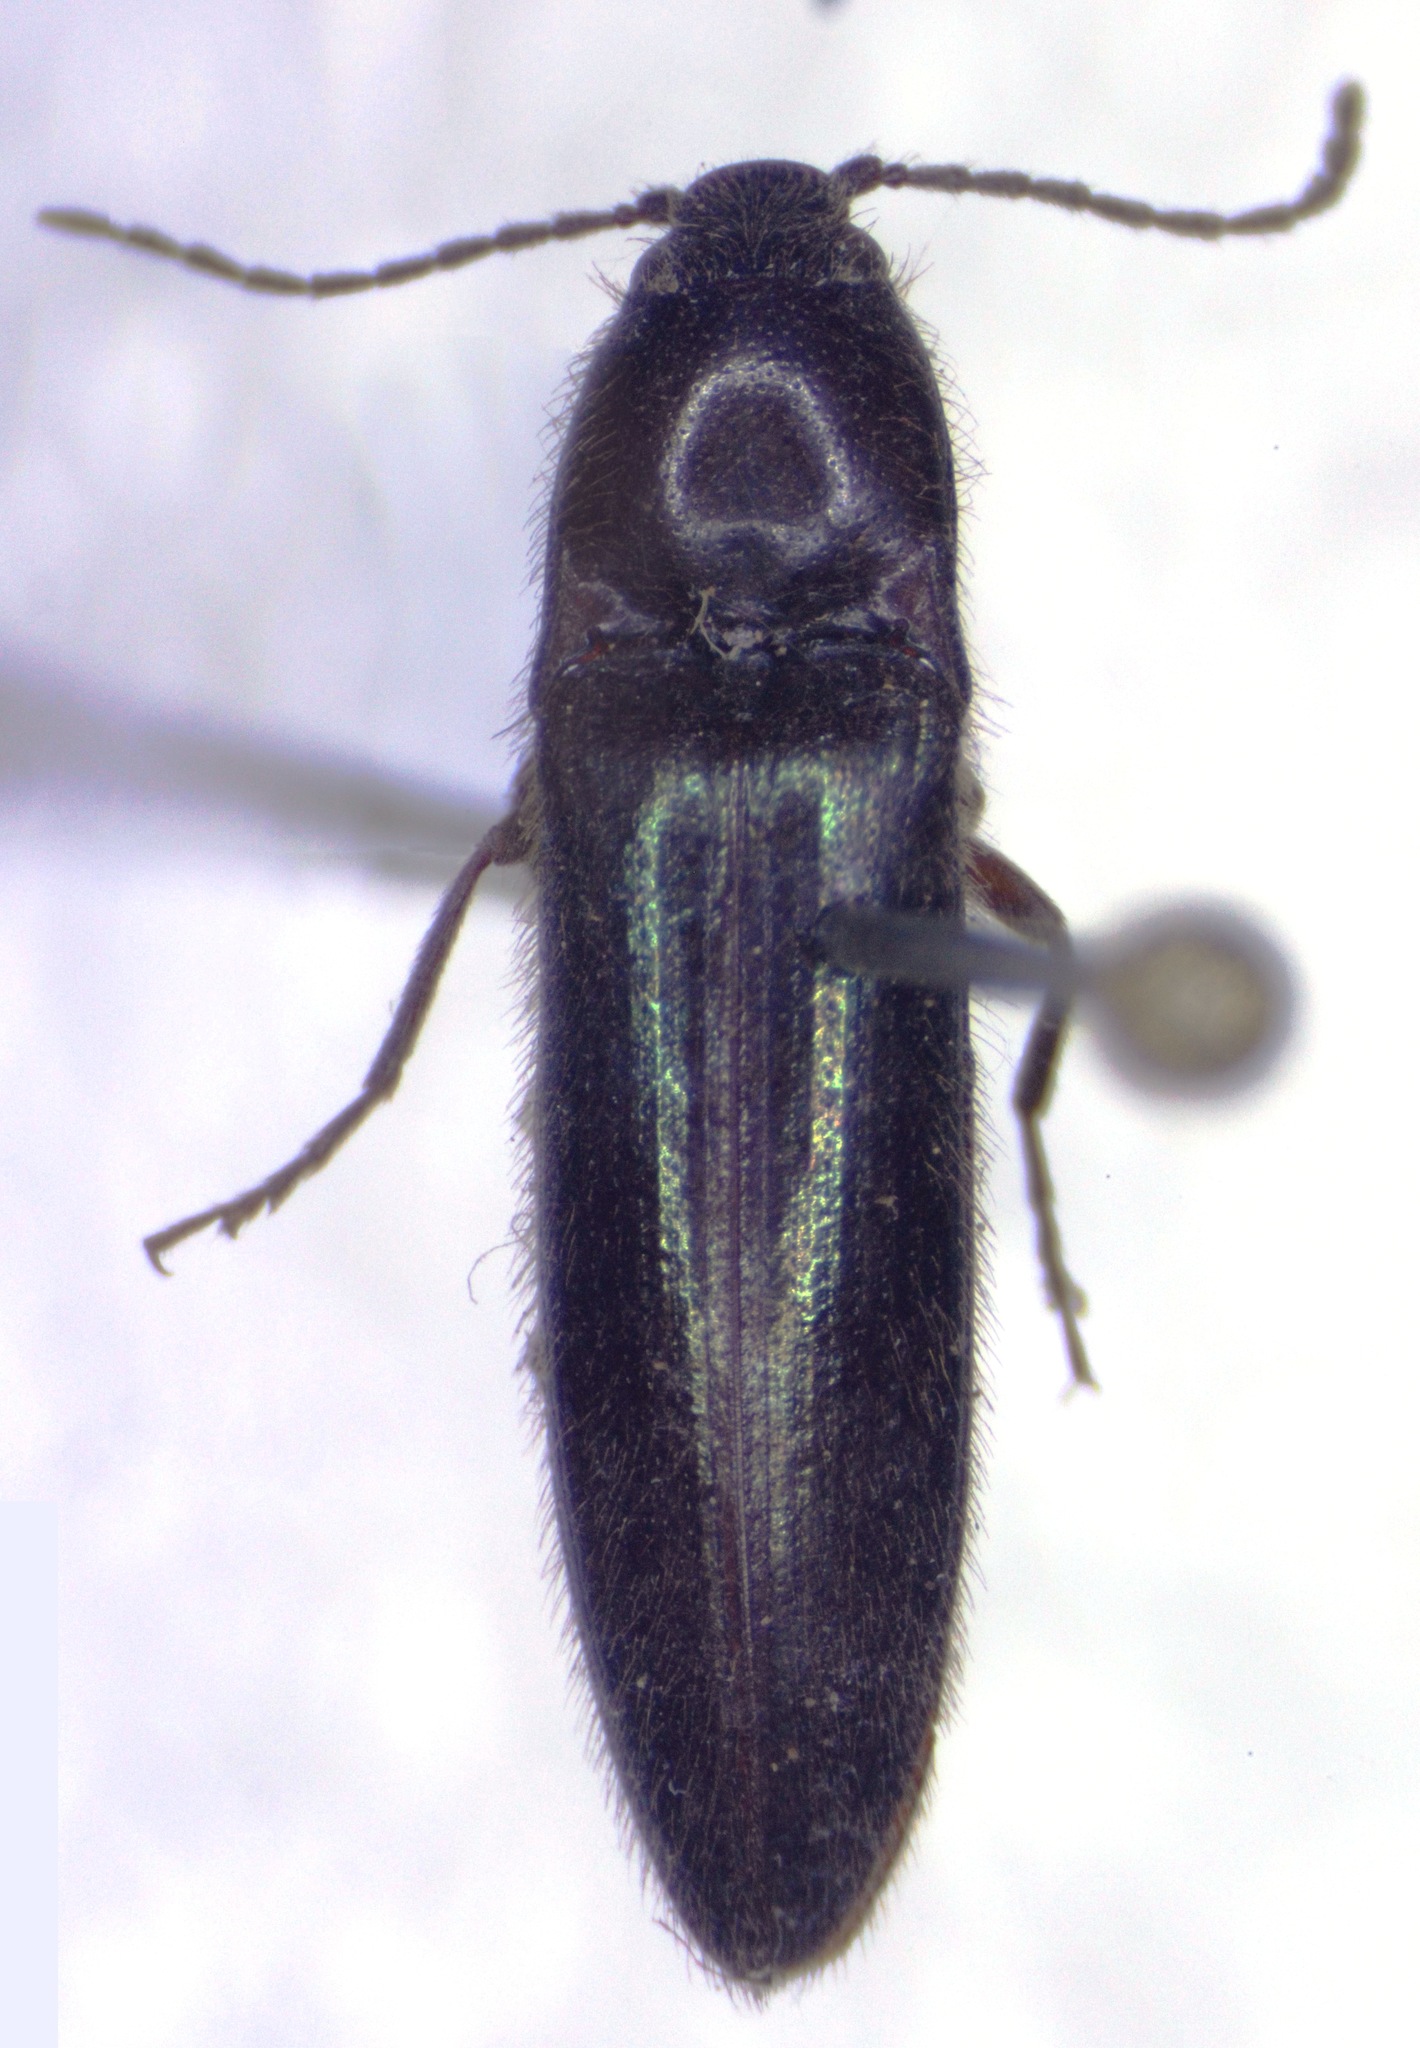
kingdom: Animalia
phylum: Arthropoda
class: Insecta
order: Coleoptera
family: Elateridae
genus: Dipropus
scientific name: Dipropus
